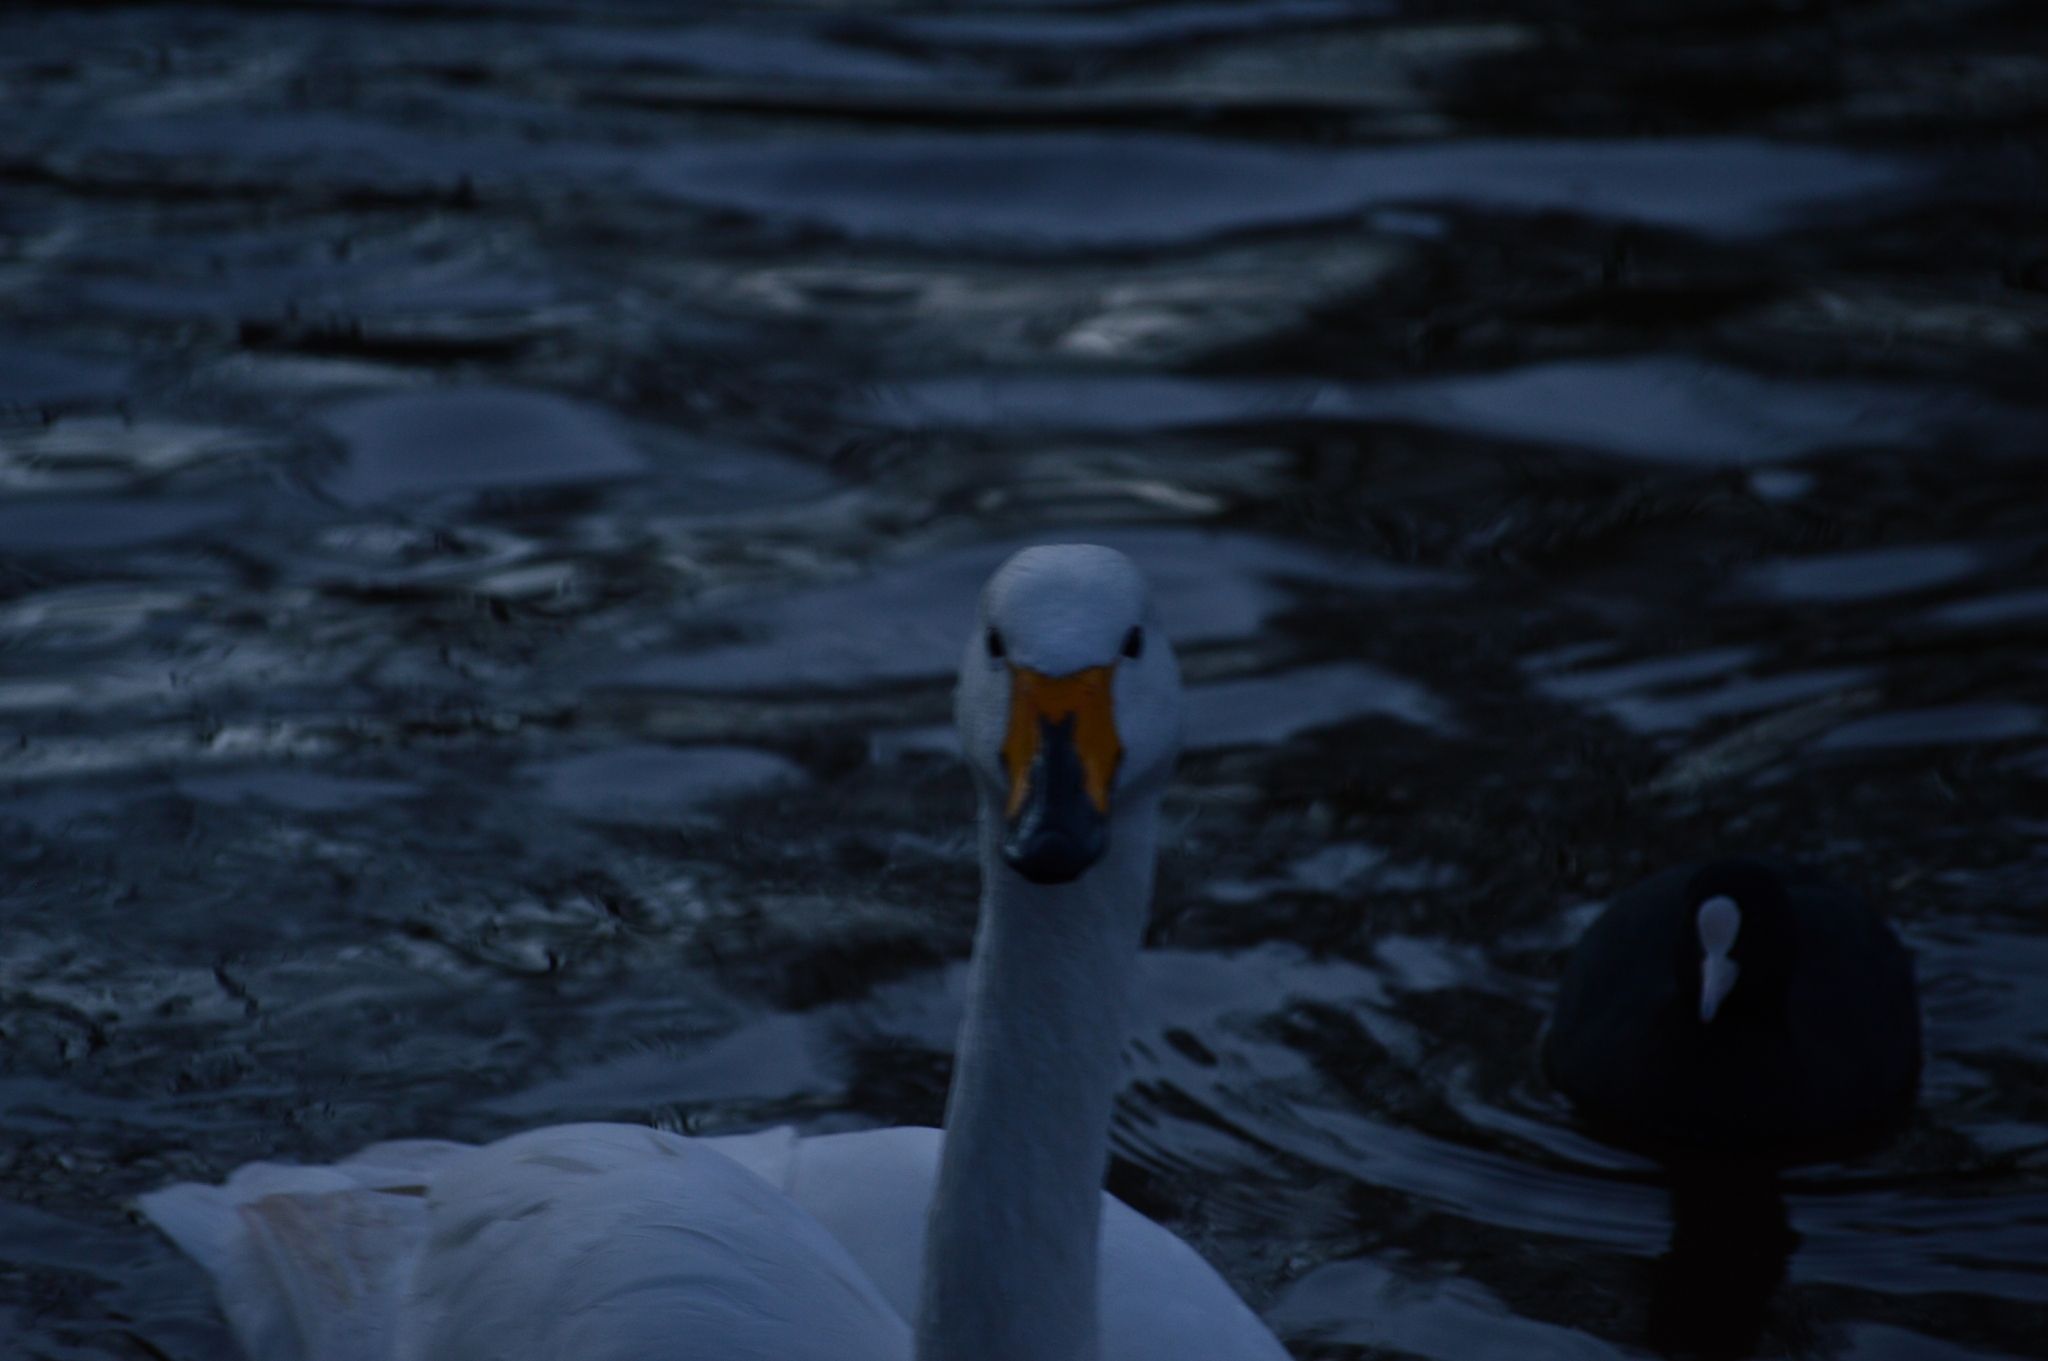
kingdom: Animalia
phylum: Chordata
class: Aves
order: Anseriformes
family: Anatidae
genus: Cygnus
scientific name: Cygnus cygnus
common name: Whooper swan
